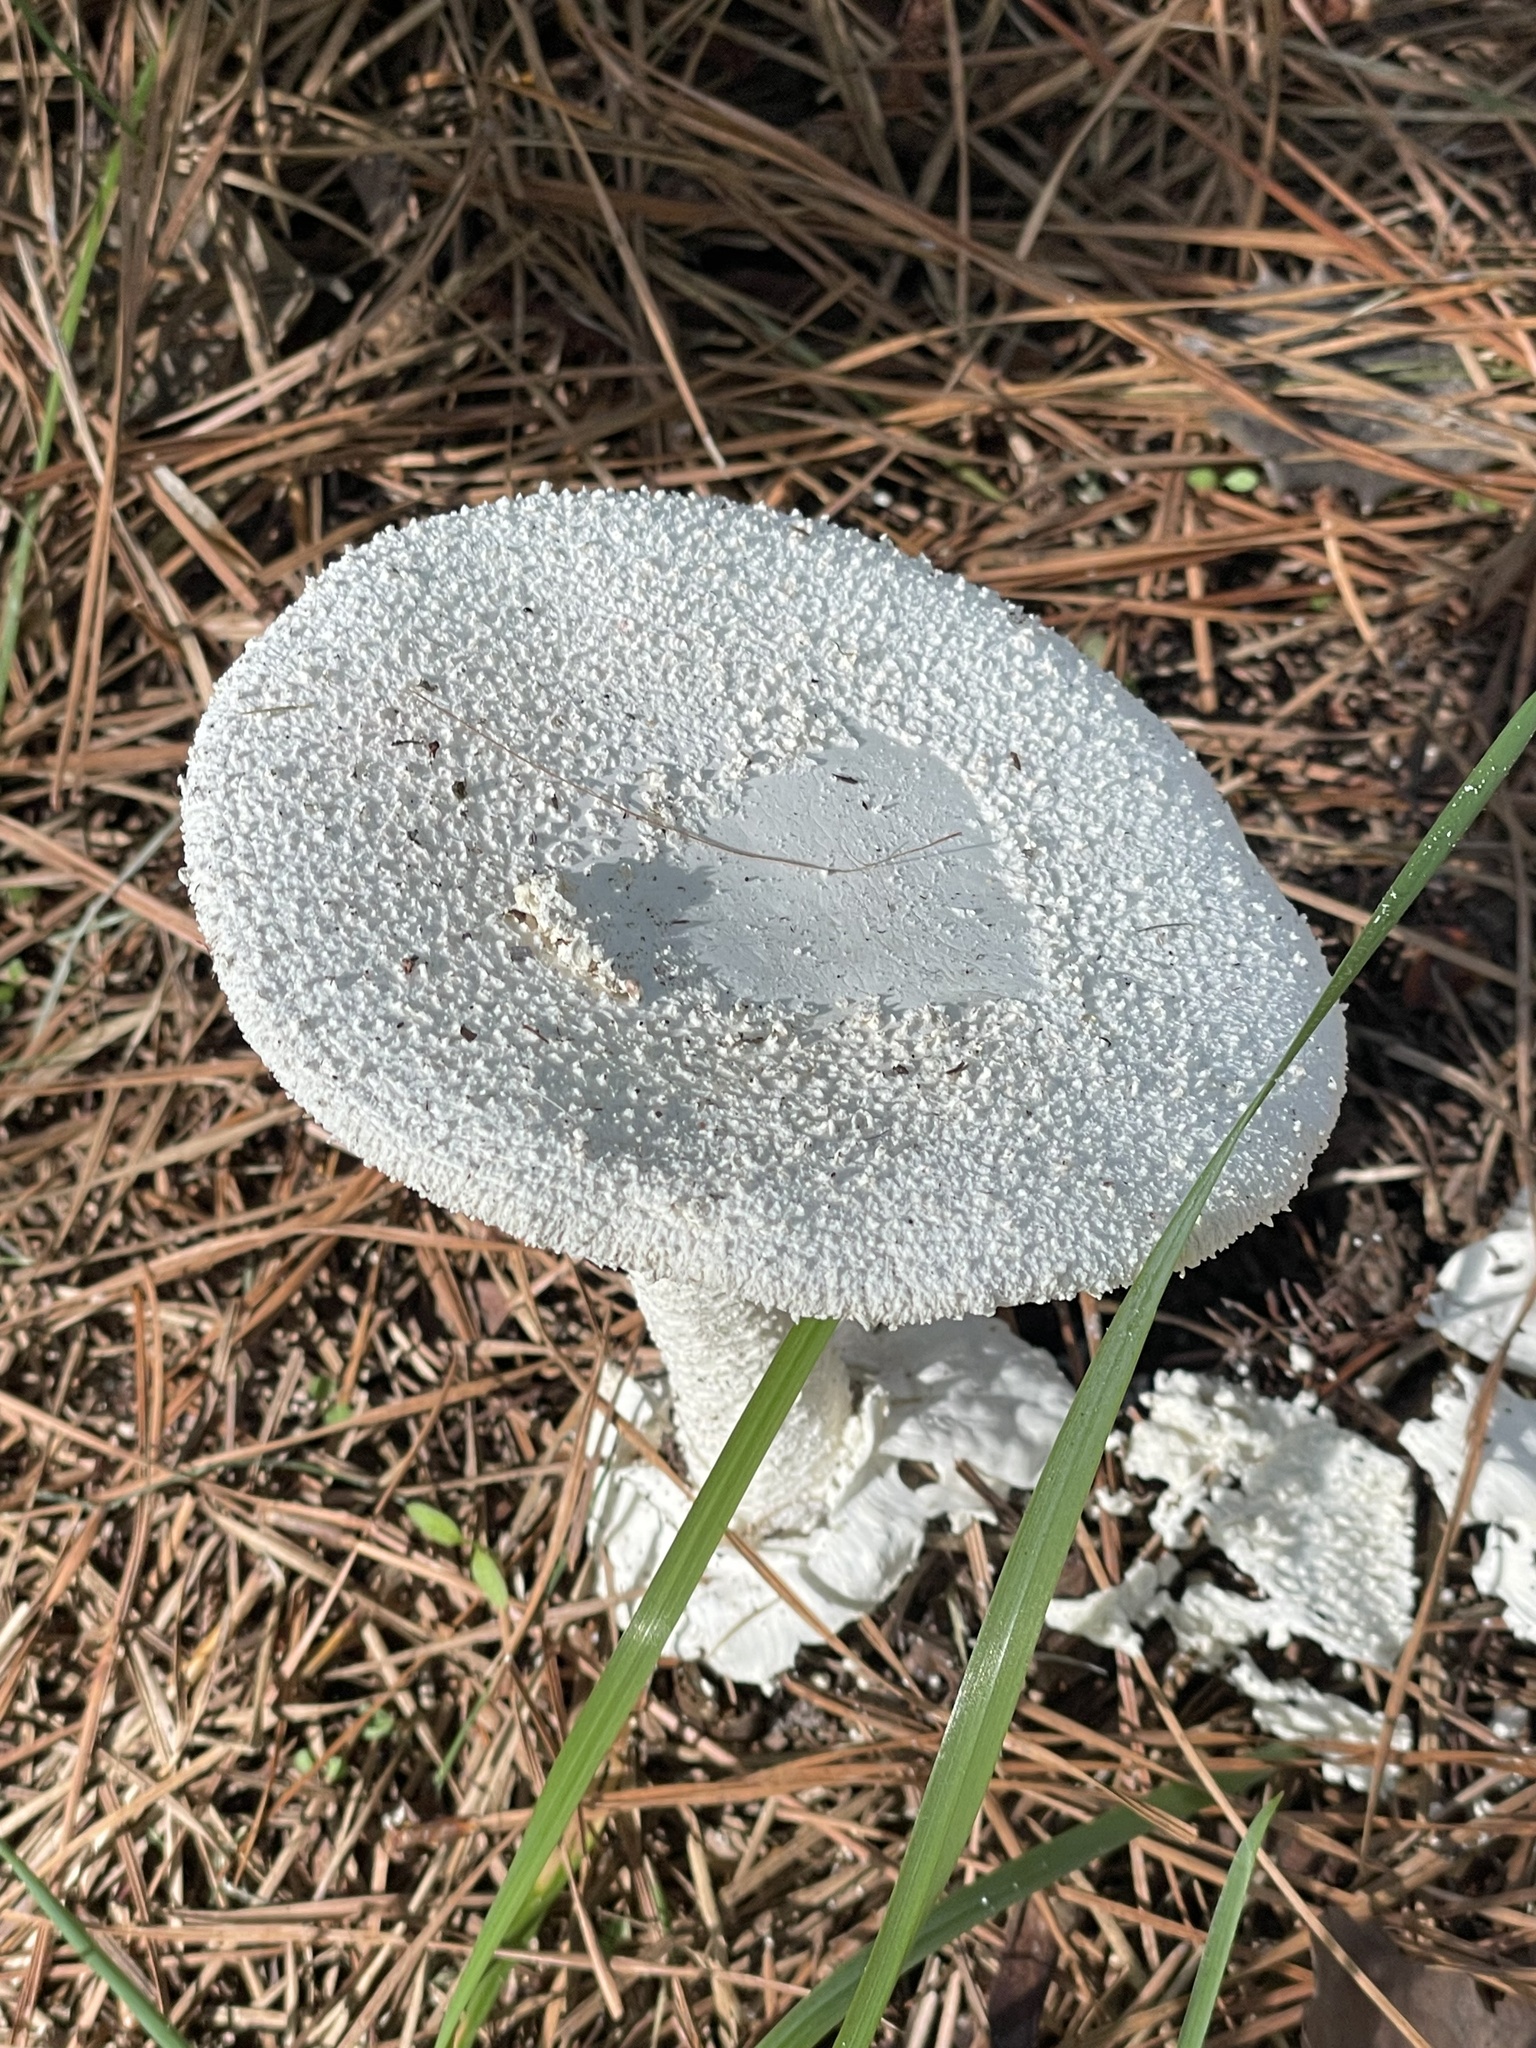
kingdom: Fungi
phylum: Basidiomycota
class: Agaricomycetes
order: Agaricales
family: Amanitaceae
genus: Amanita
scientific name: Amanita polypyramis
